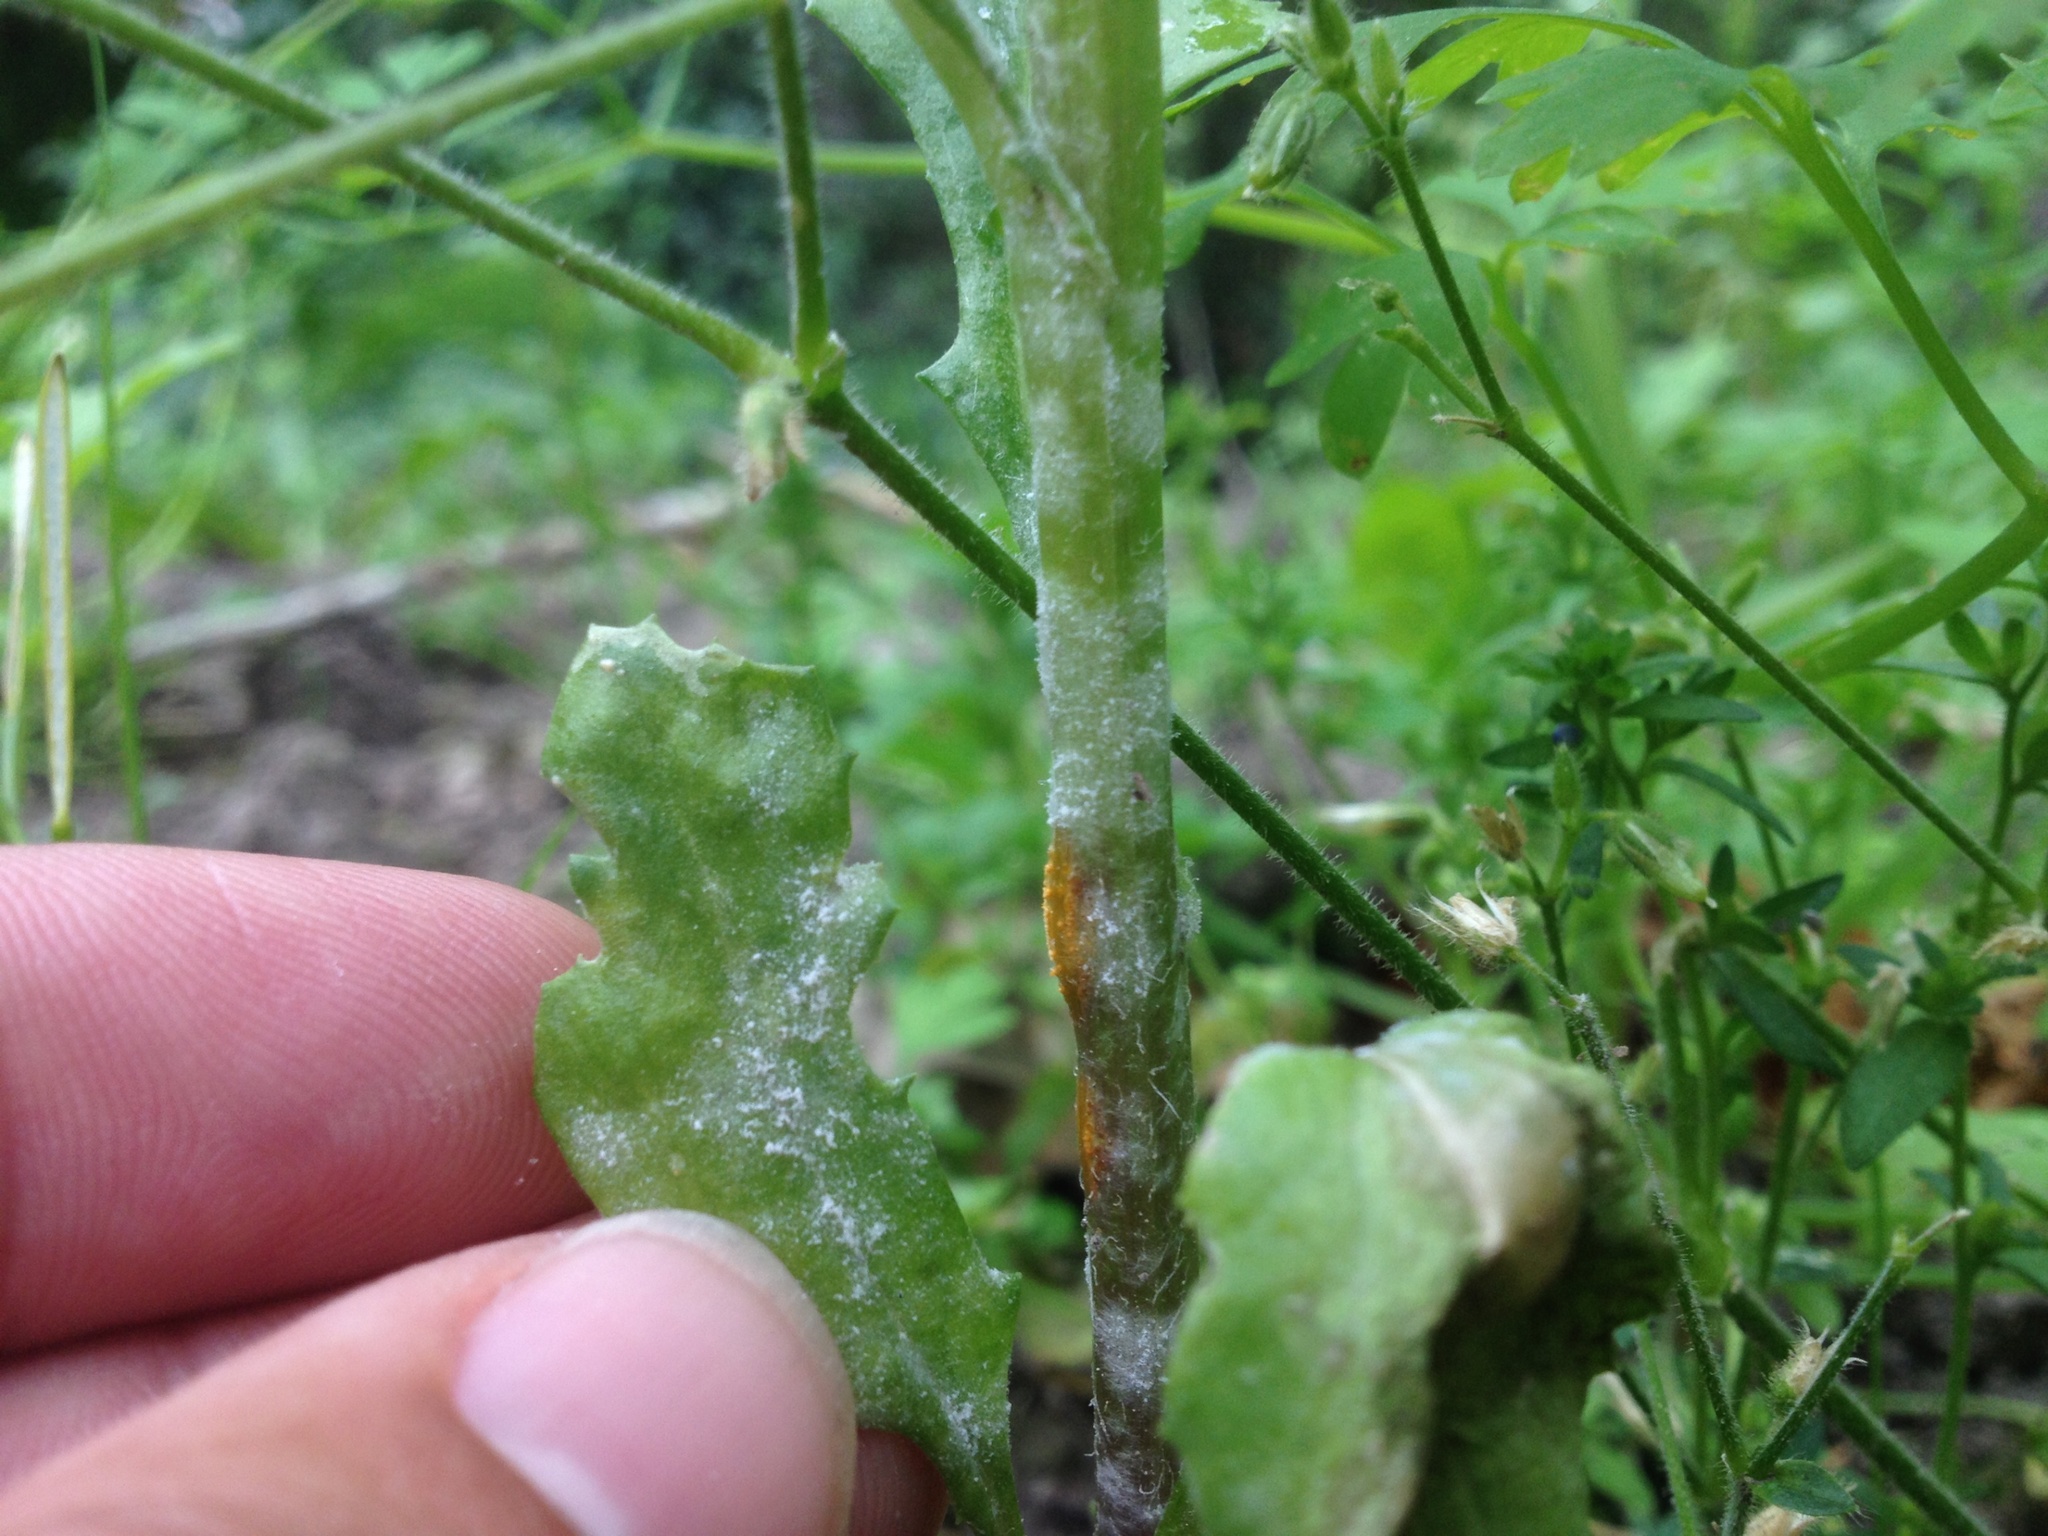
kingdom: Fungi
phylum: Ascomycota
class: Leotiomycetes
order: Helotiales
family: Erysiphaceae
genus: Golovinomyces
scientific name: Golovinomyces fischeri
